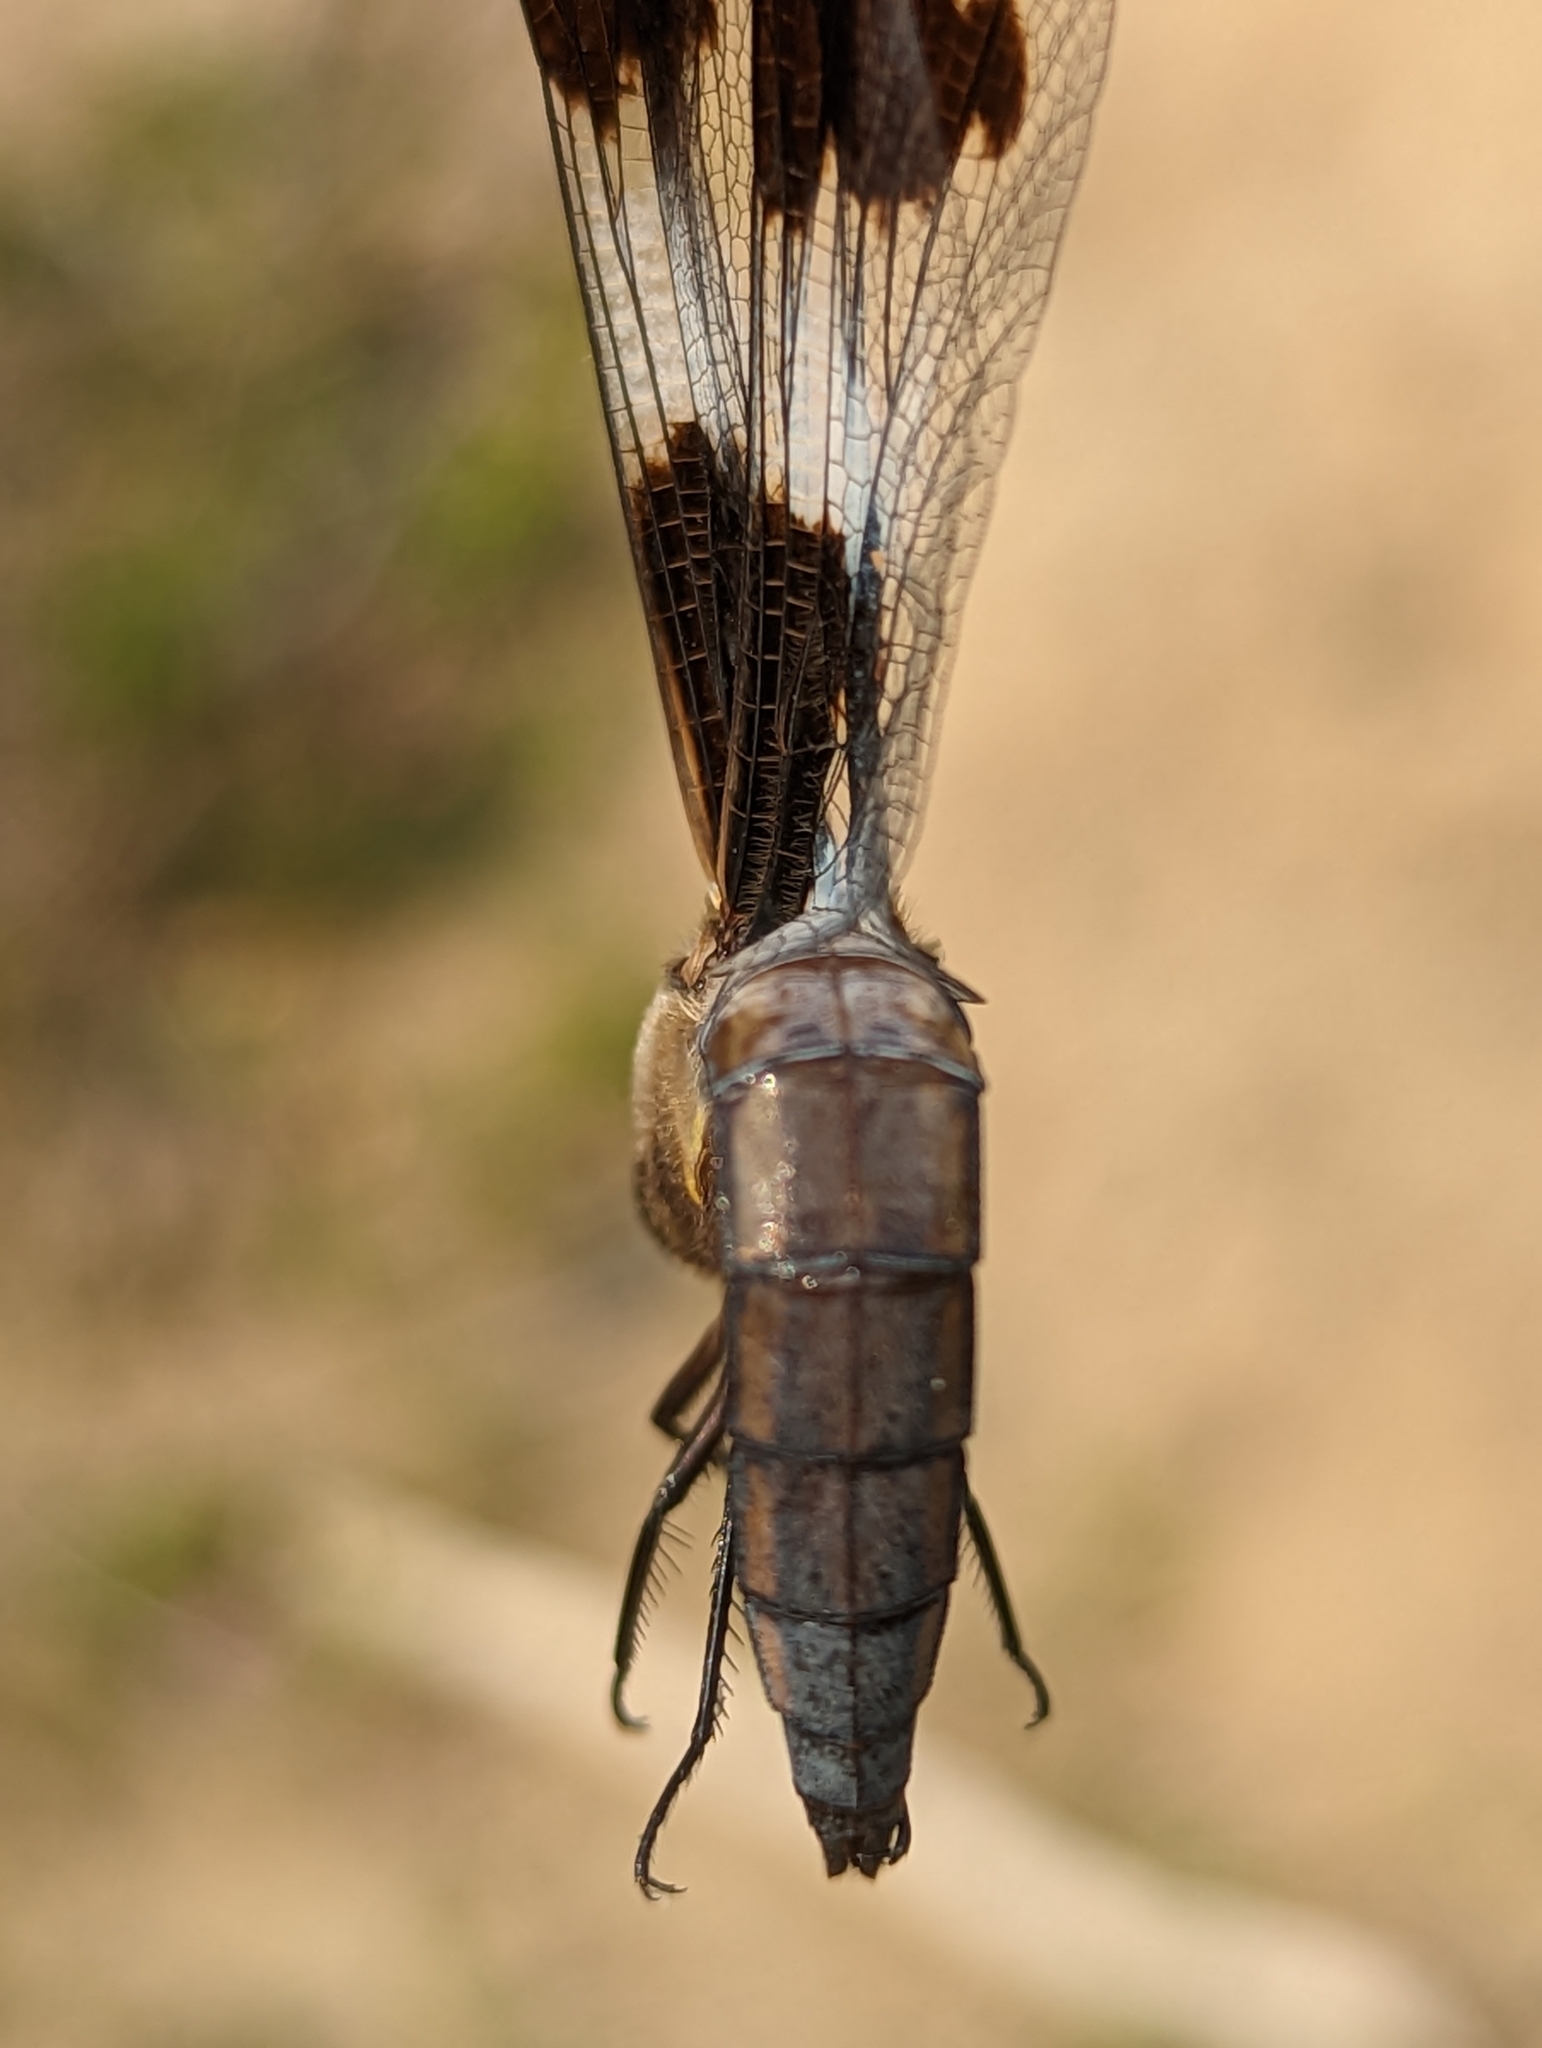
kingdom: Animalia
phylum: Arthropoda
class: Insecta
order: Odonata
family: Libellulidae
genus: Libellula
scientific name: Libellula pulchella
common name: Twelve-spotted skimmer
